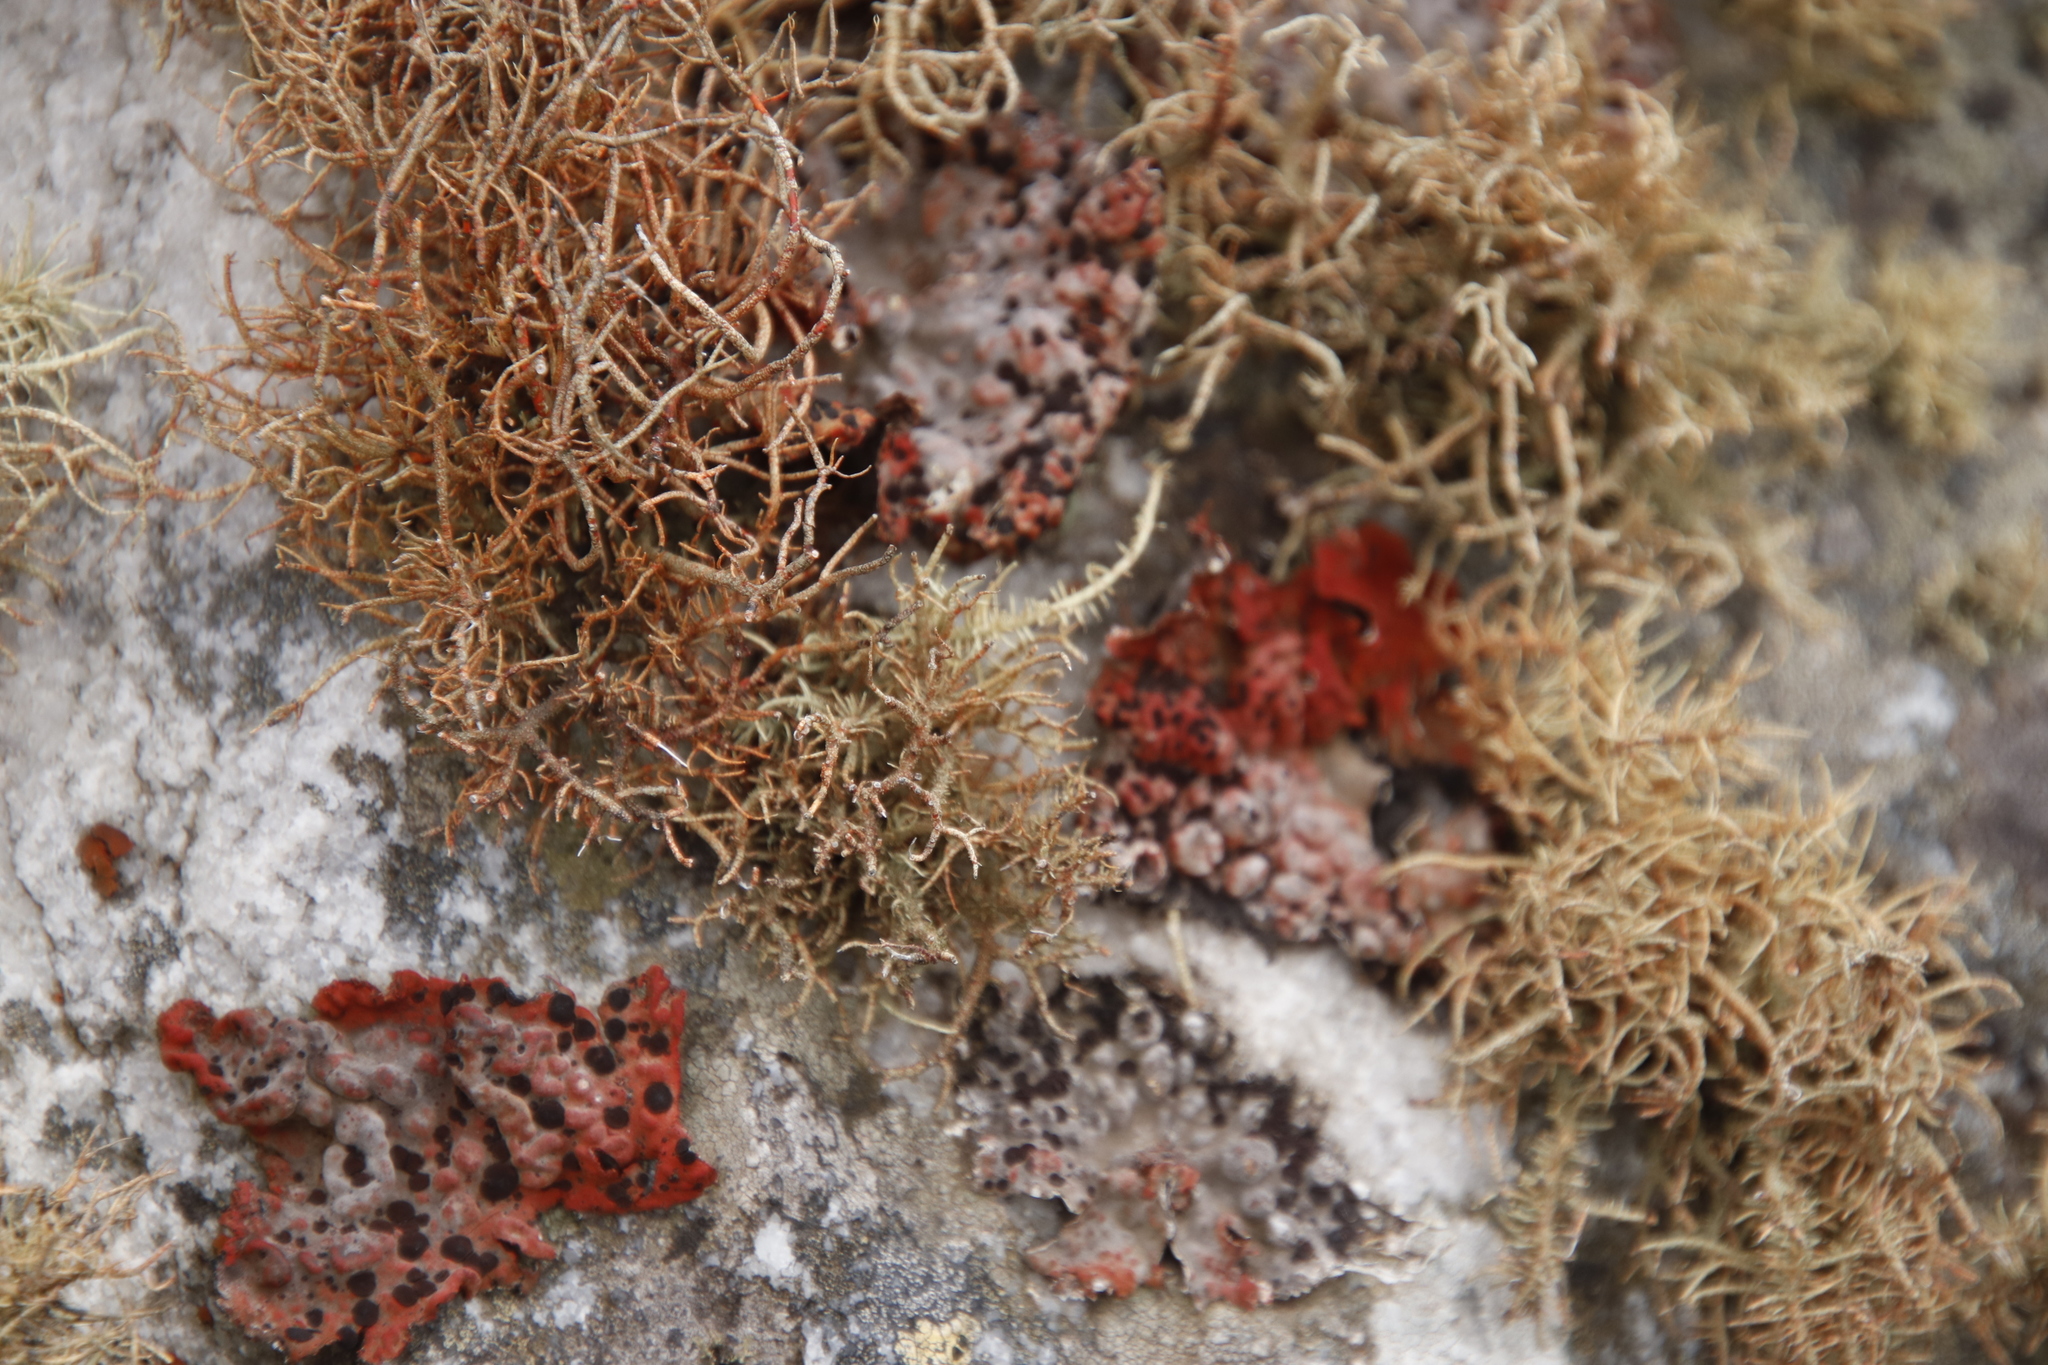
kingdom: Fungi
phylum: Ascomycota
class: Lecanoromycetes
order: Lecanorales
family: Parmeliaceae
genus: Usnea
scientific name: Usnea maculata
